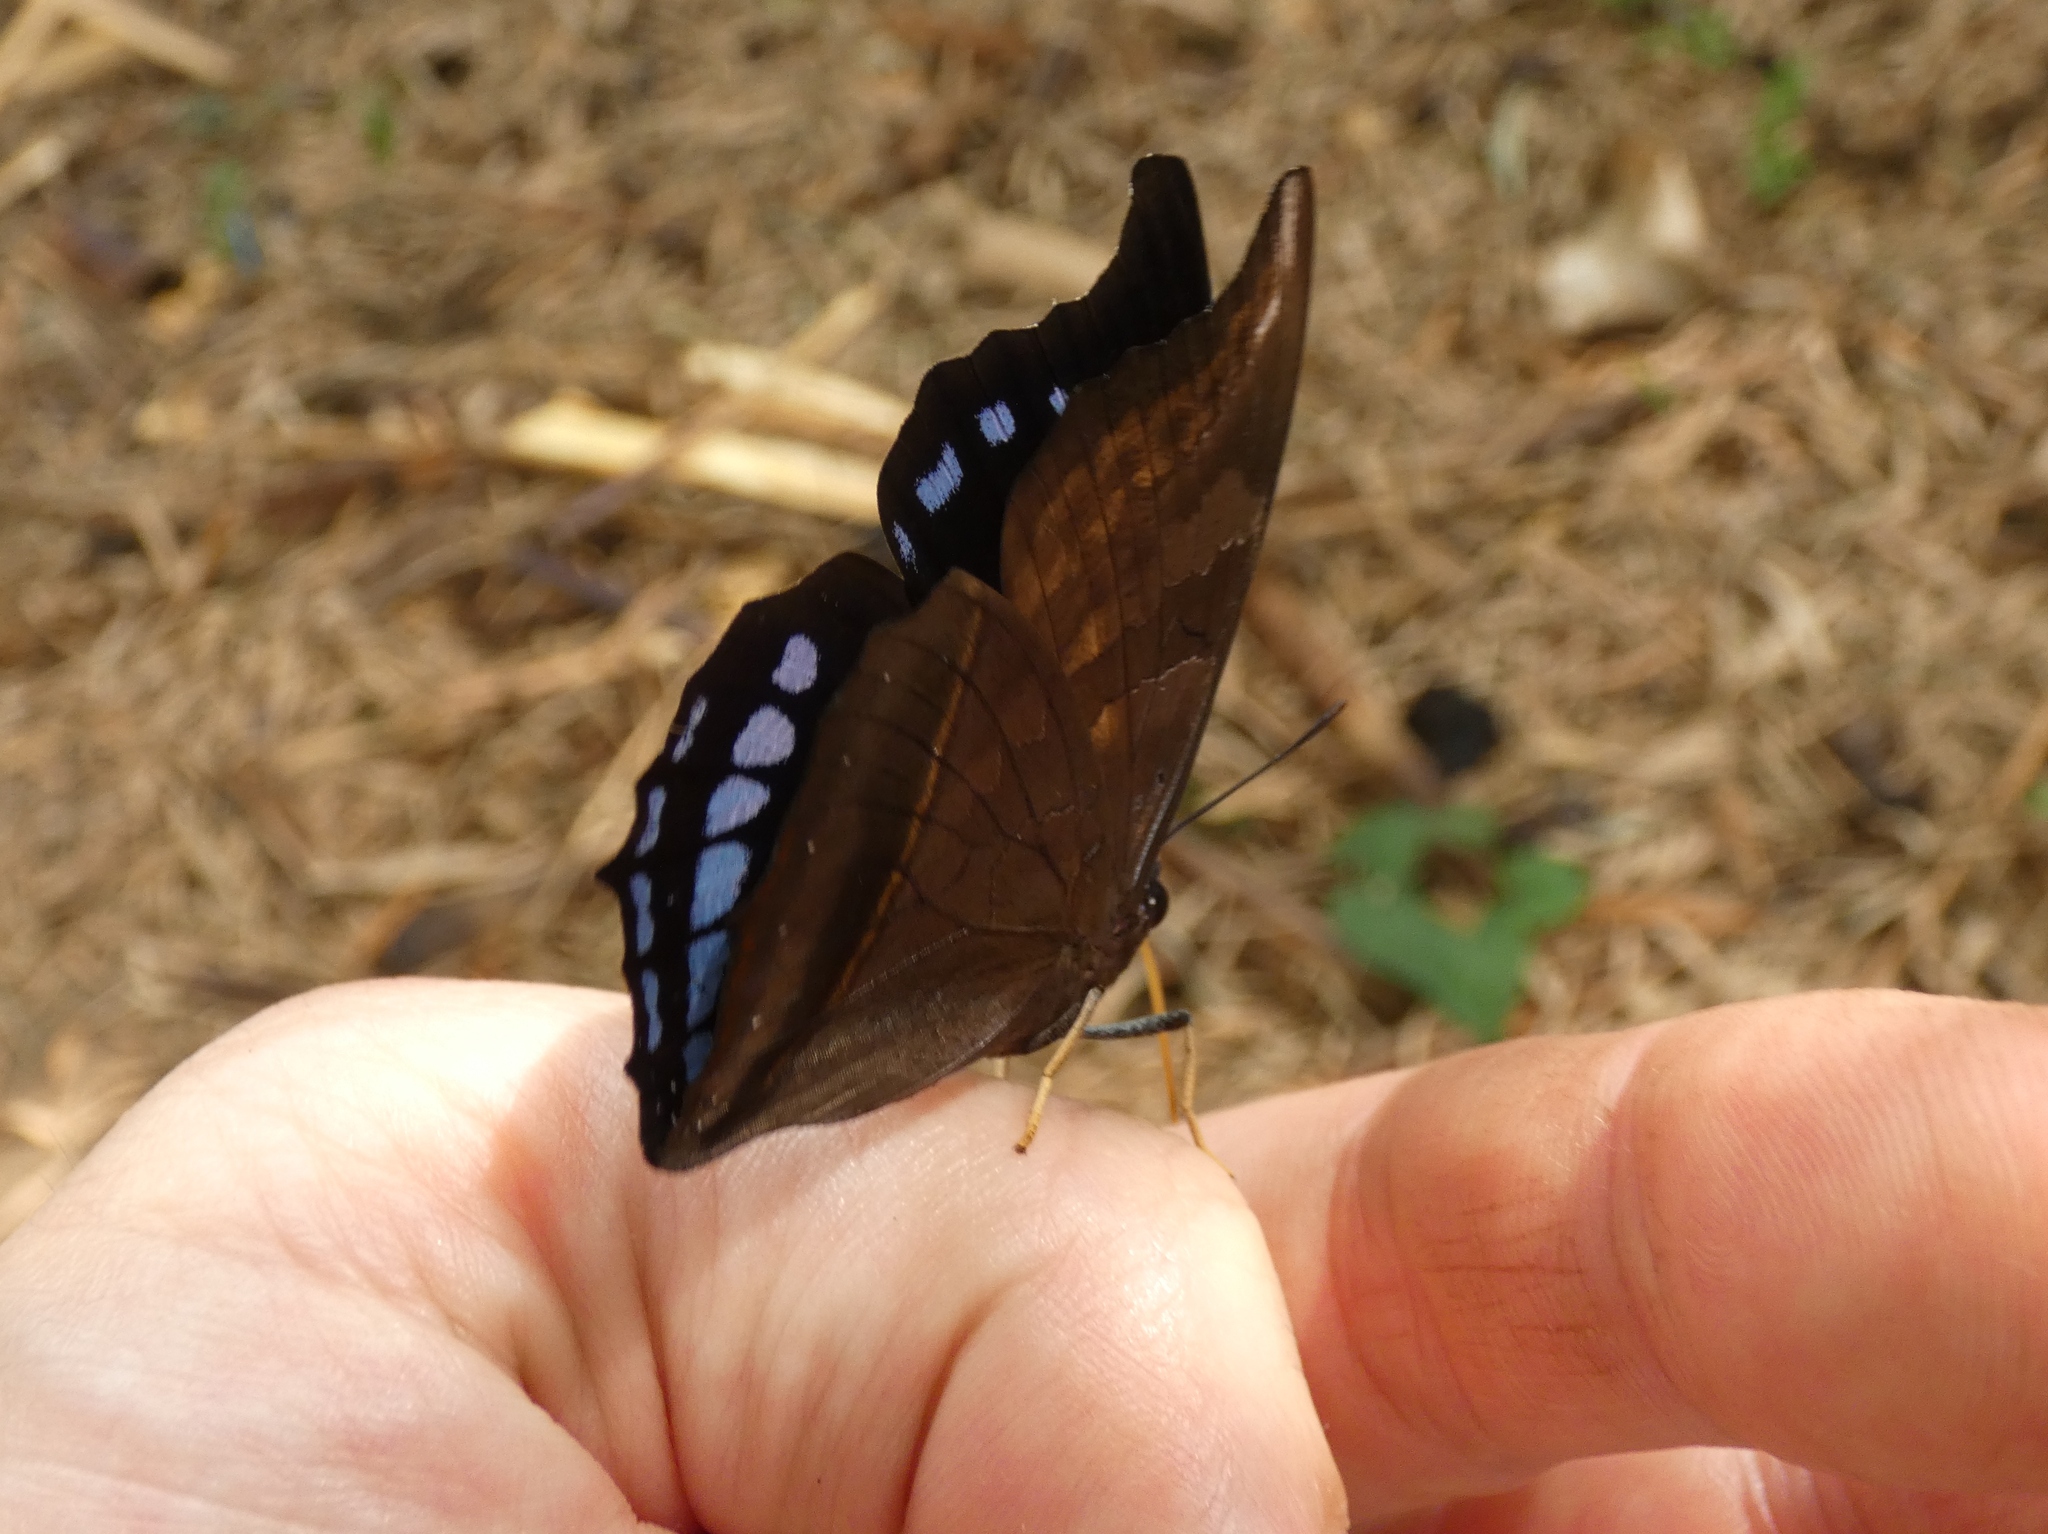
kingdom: Animalia
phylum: Arthropoda
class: Insecta
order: Lepidoptera
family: Nymphalidae
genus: Charaxes
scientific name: Charaxes lycurgus
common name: Laodice untailed charaxes
